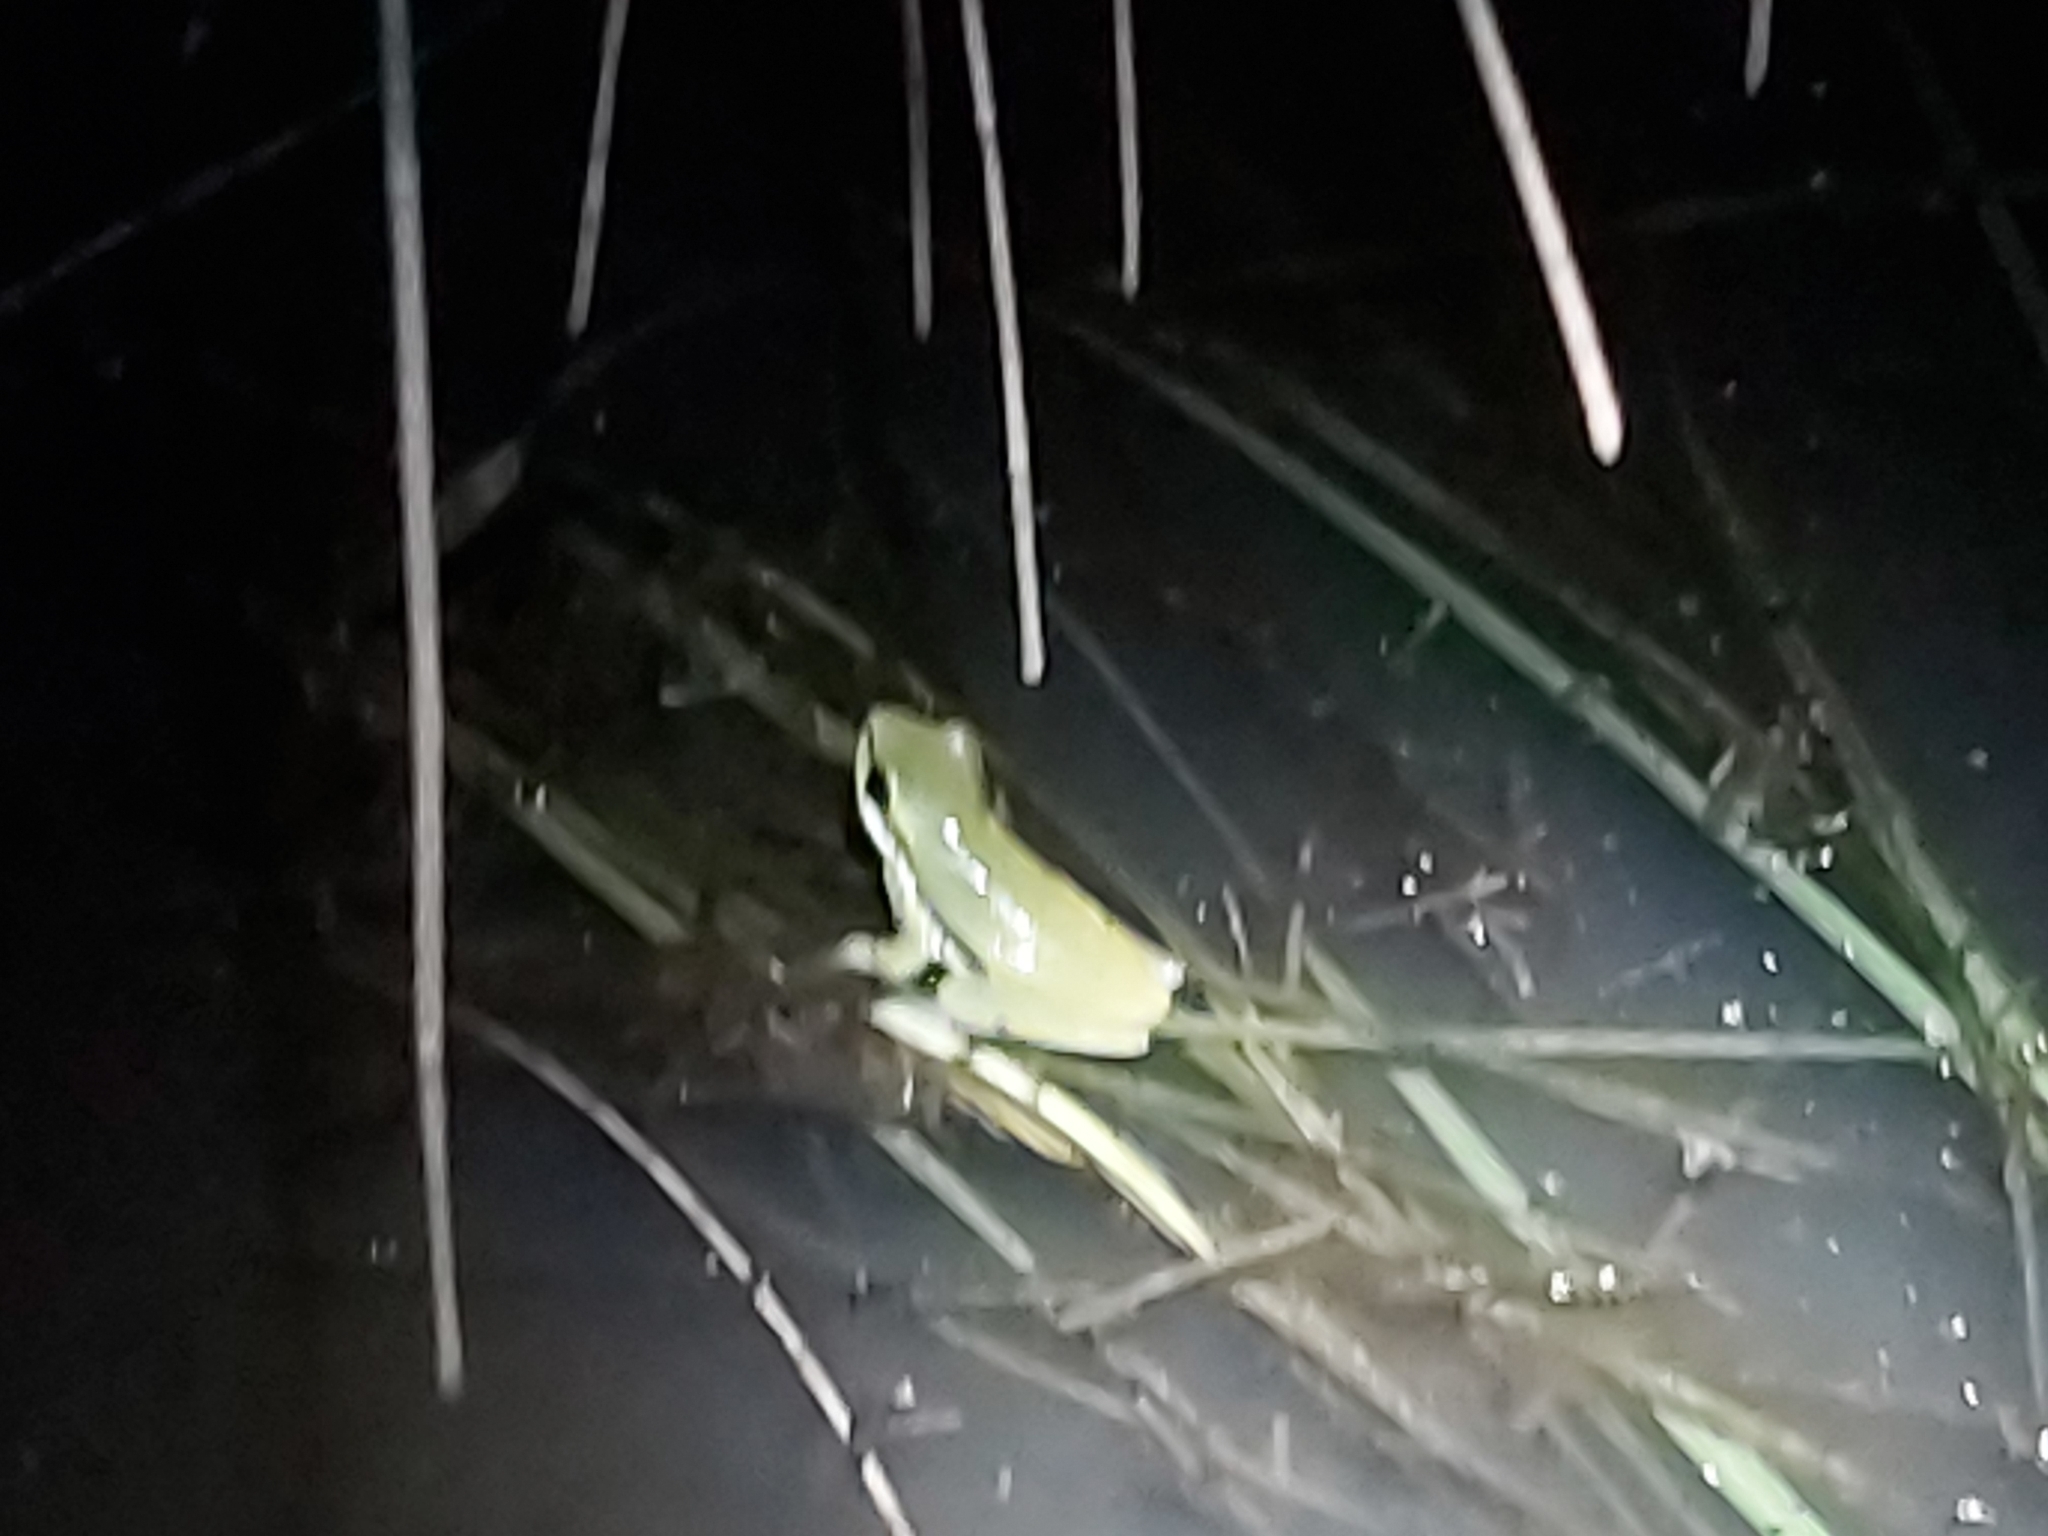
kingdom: Animalia
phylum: Chordata
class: Amphibia
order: Anura
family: Pelodryadidae
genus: Litoria
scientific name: Litoria fallax
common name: Eastern dwarf treefrog
